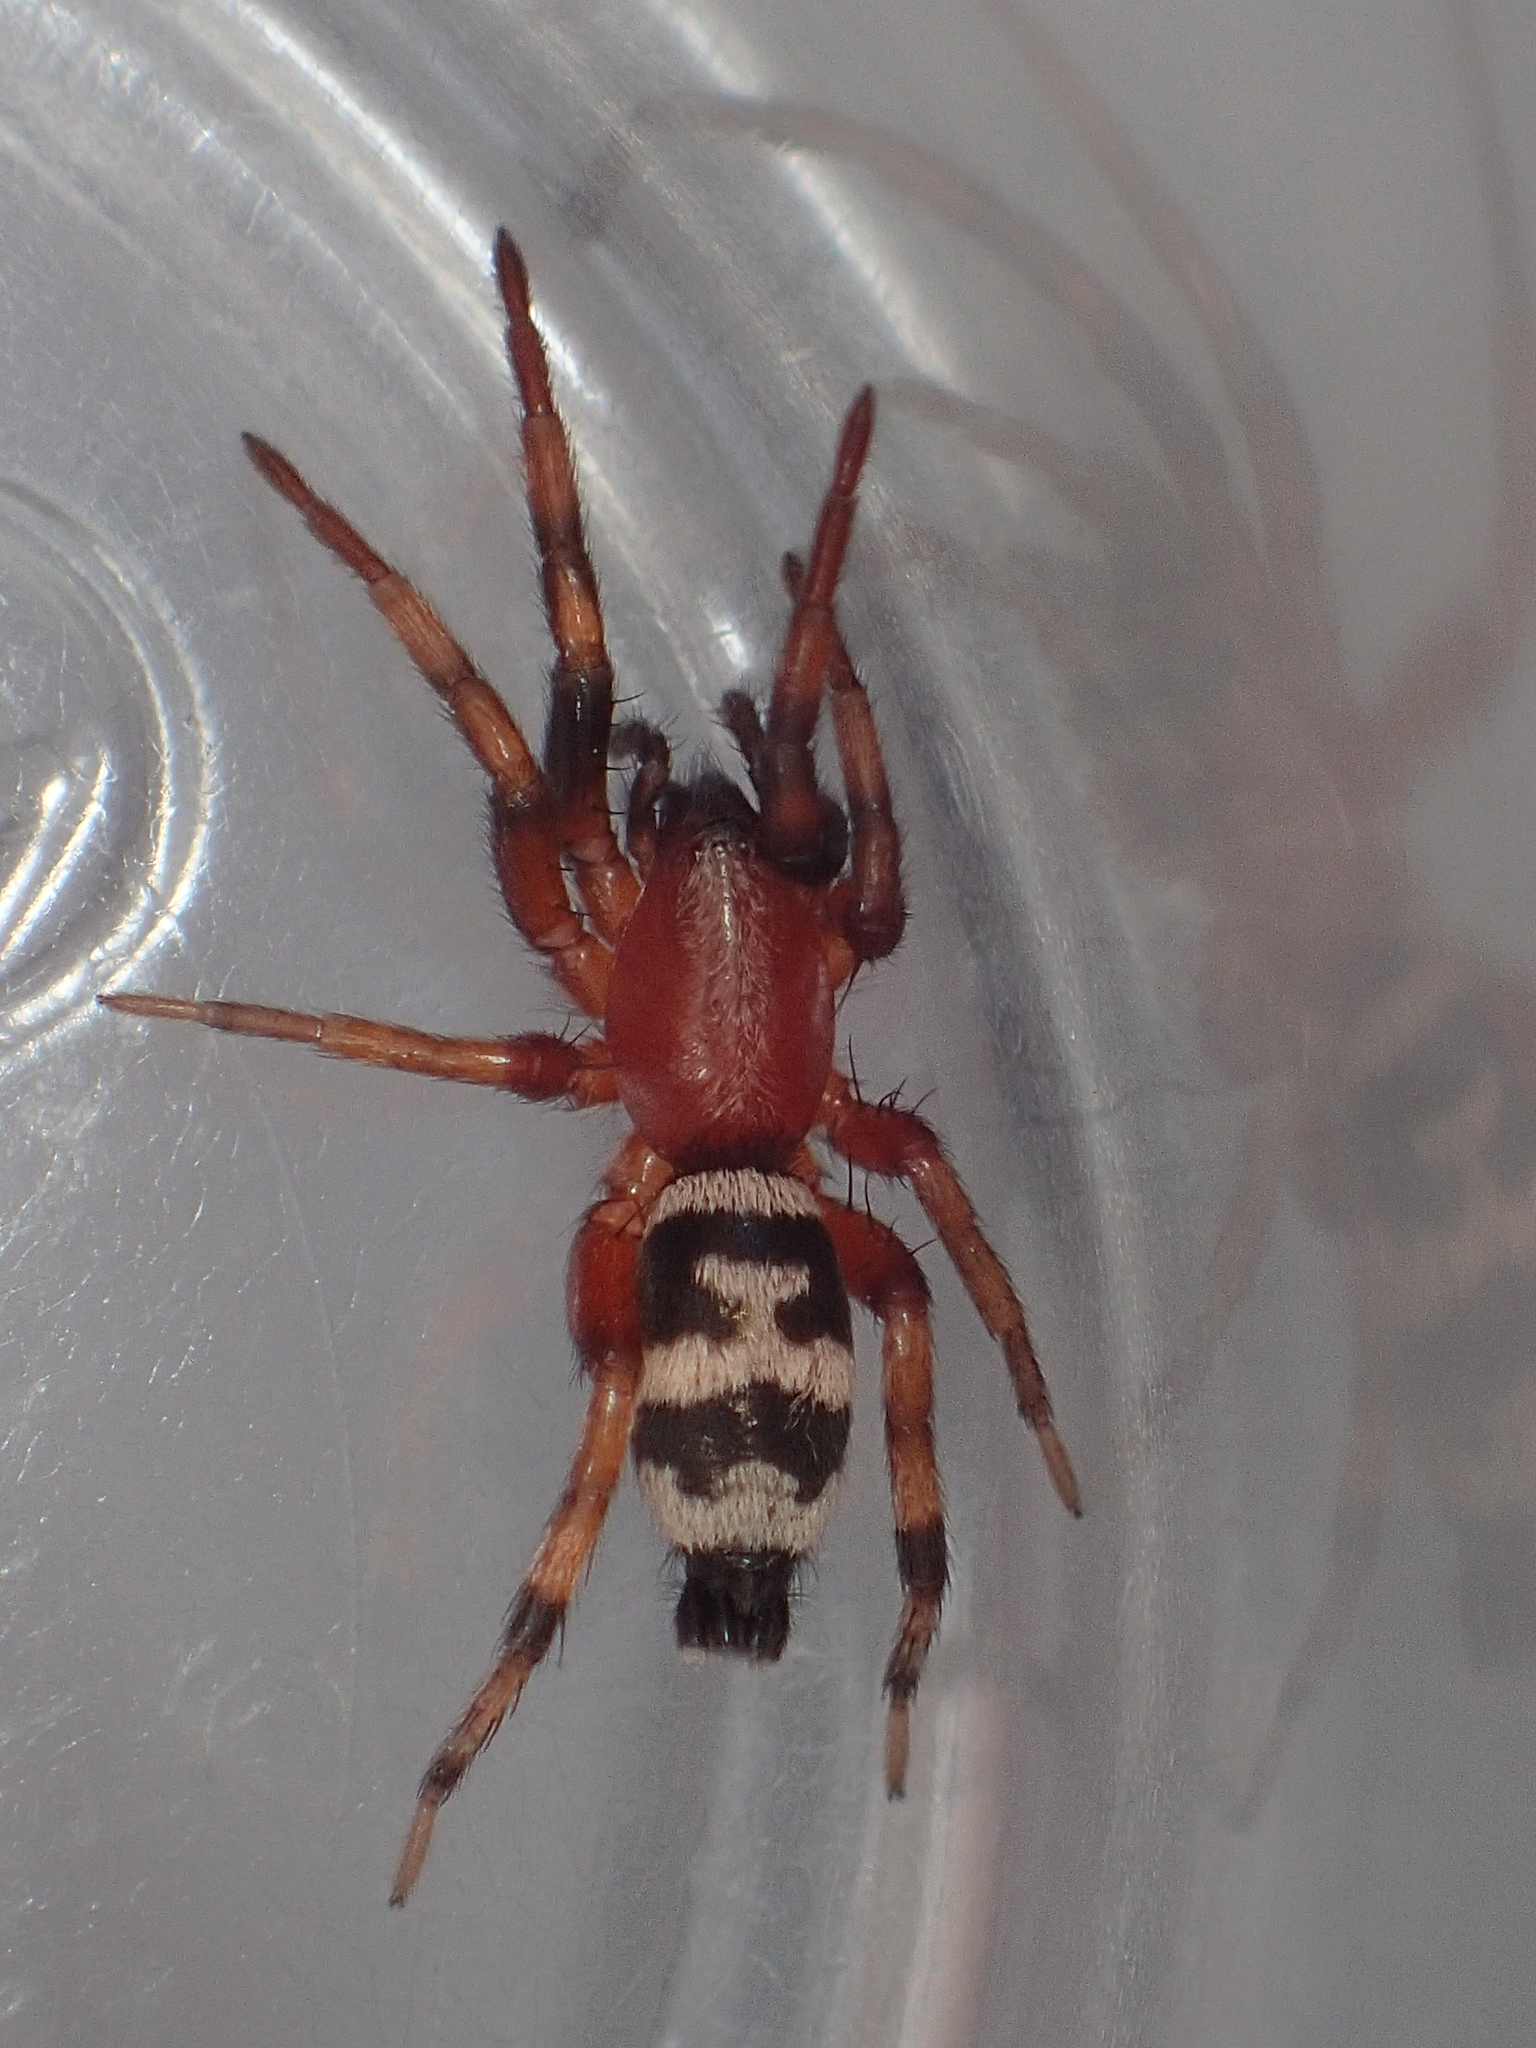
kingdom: Animalia
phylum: Arthropoda
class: Arachnida
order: Araneae
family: Gnaphosidae
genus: Sergiolus
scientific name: Sergiolus capulatus
